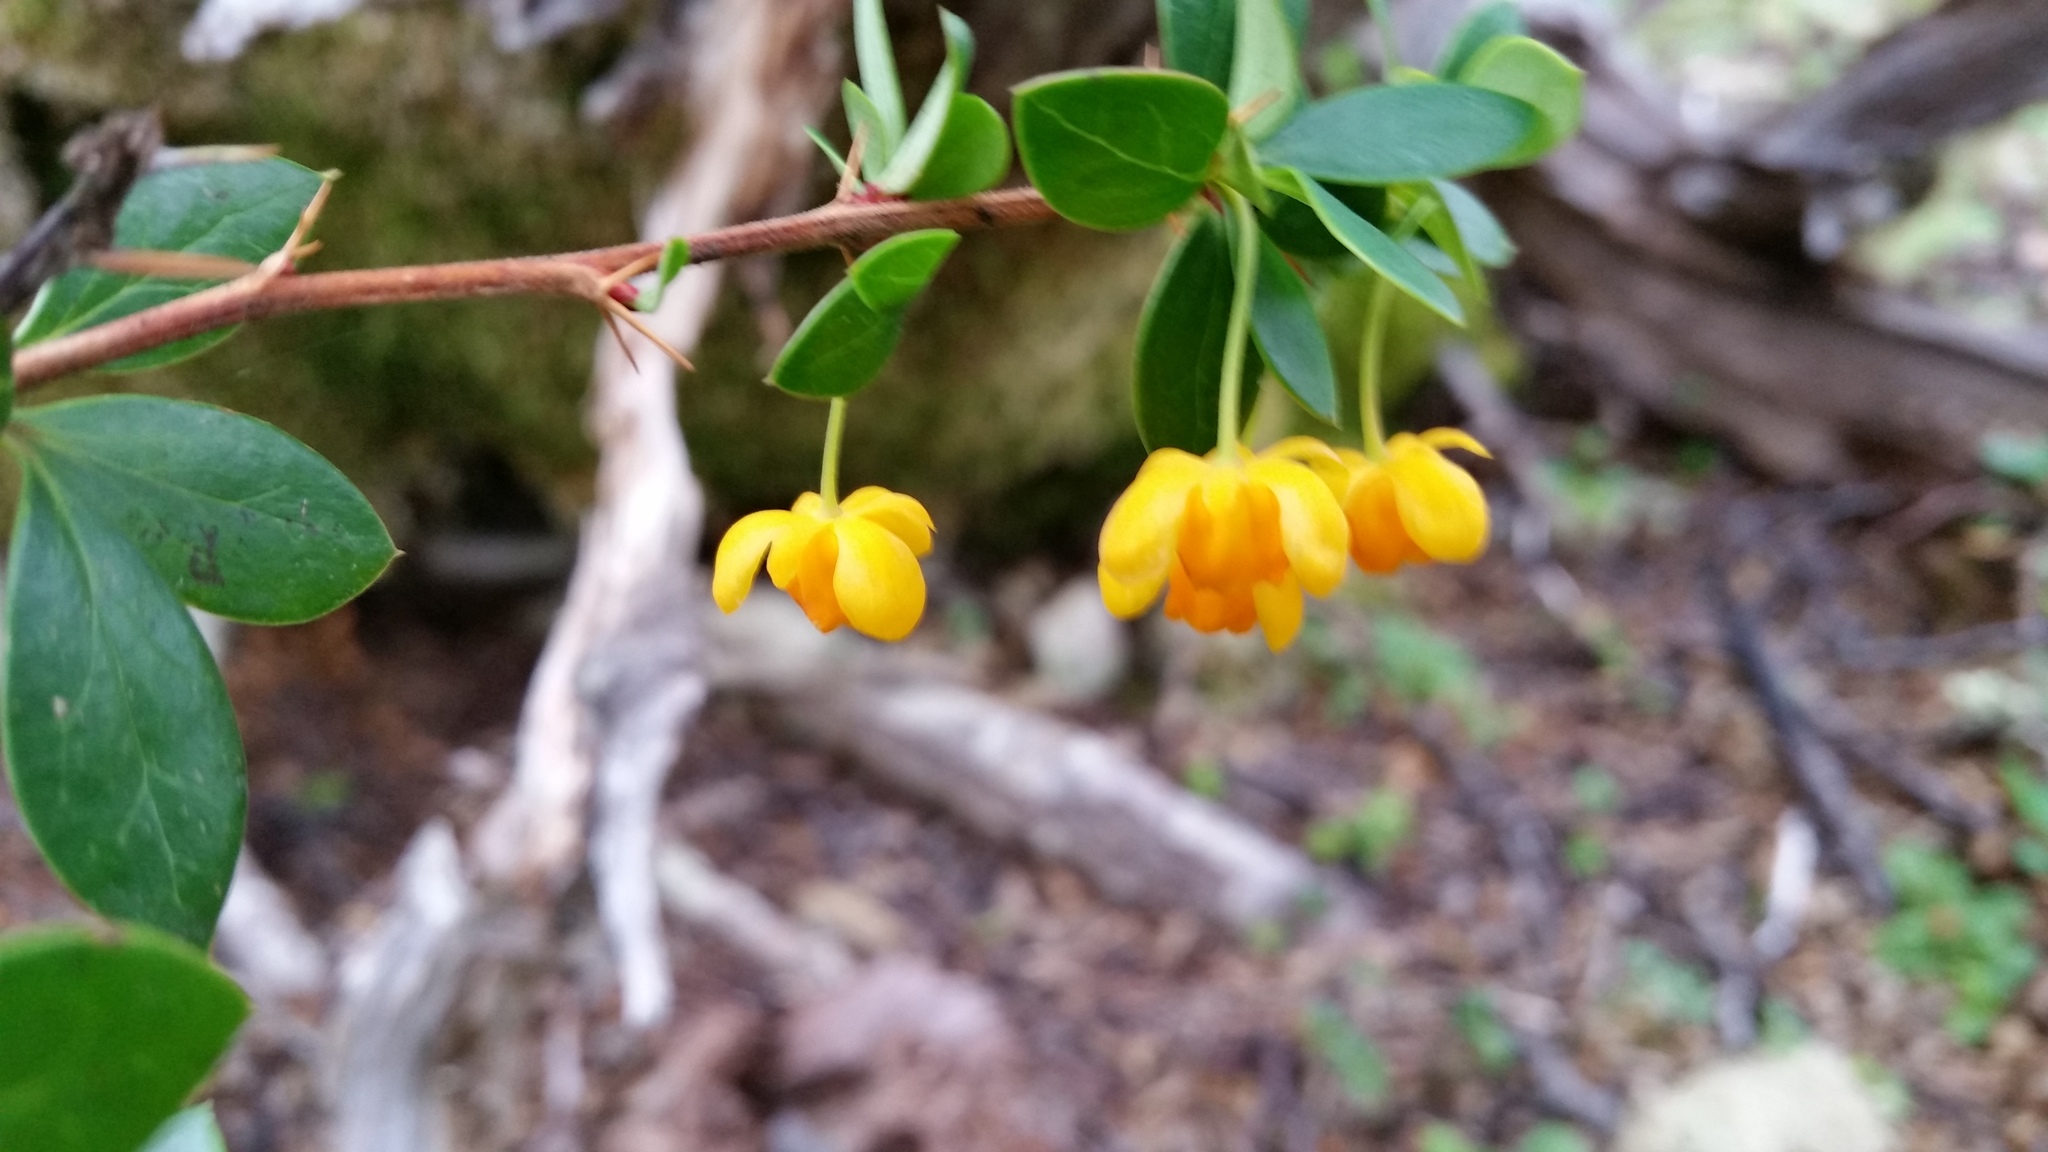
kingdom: Plantae
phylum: Tracheophyta
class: Magnoliopsida
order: Ranunculales
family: Berberidaceae
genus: Berberis
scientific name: Berberis microphylla
